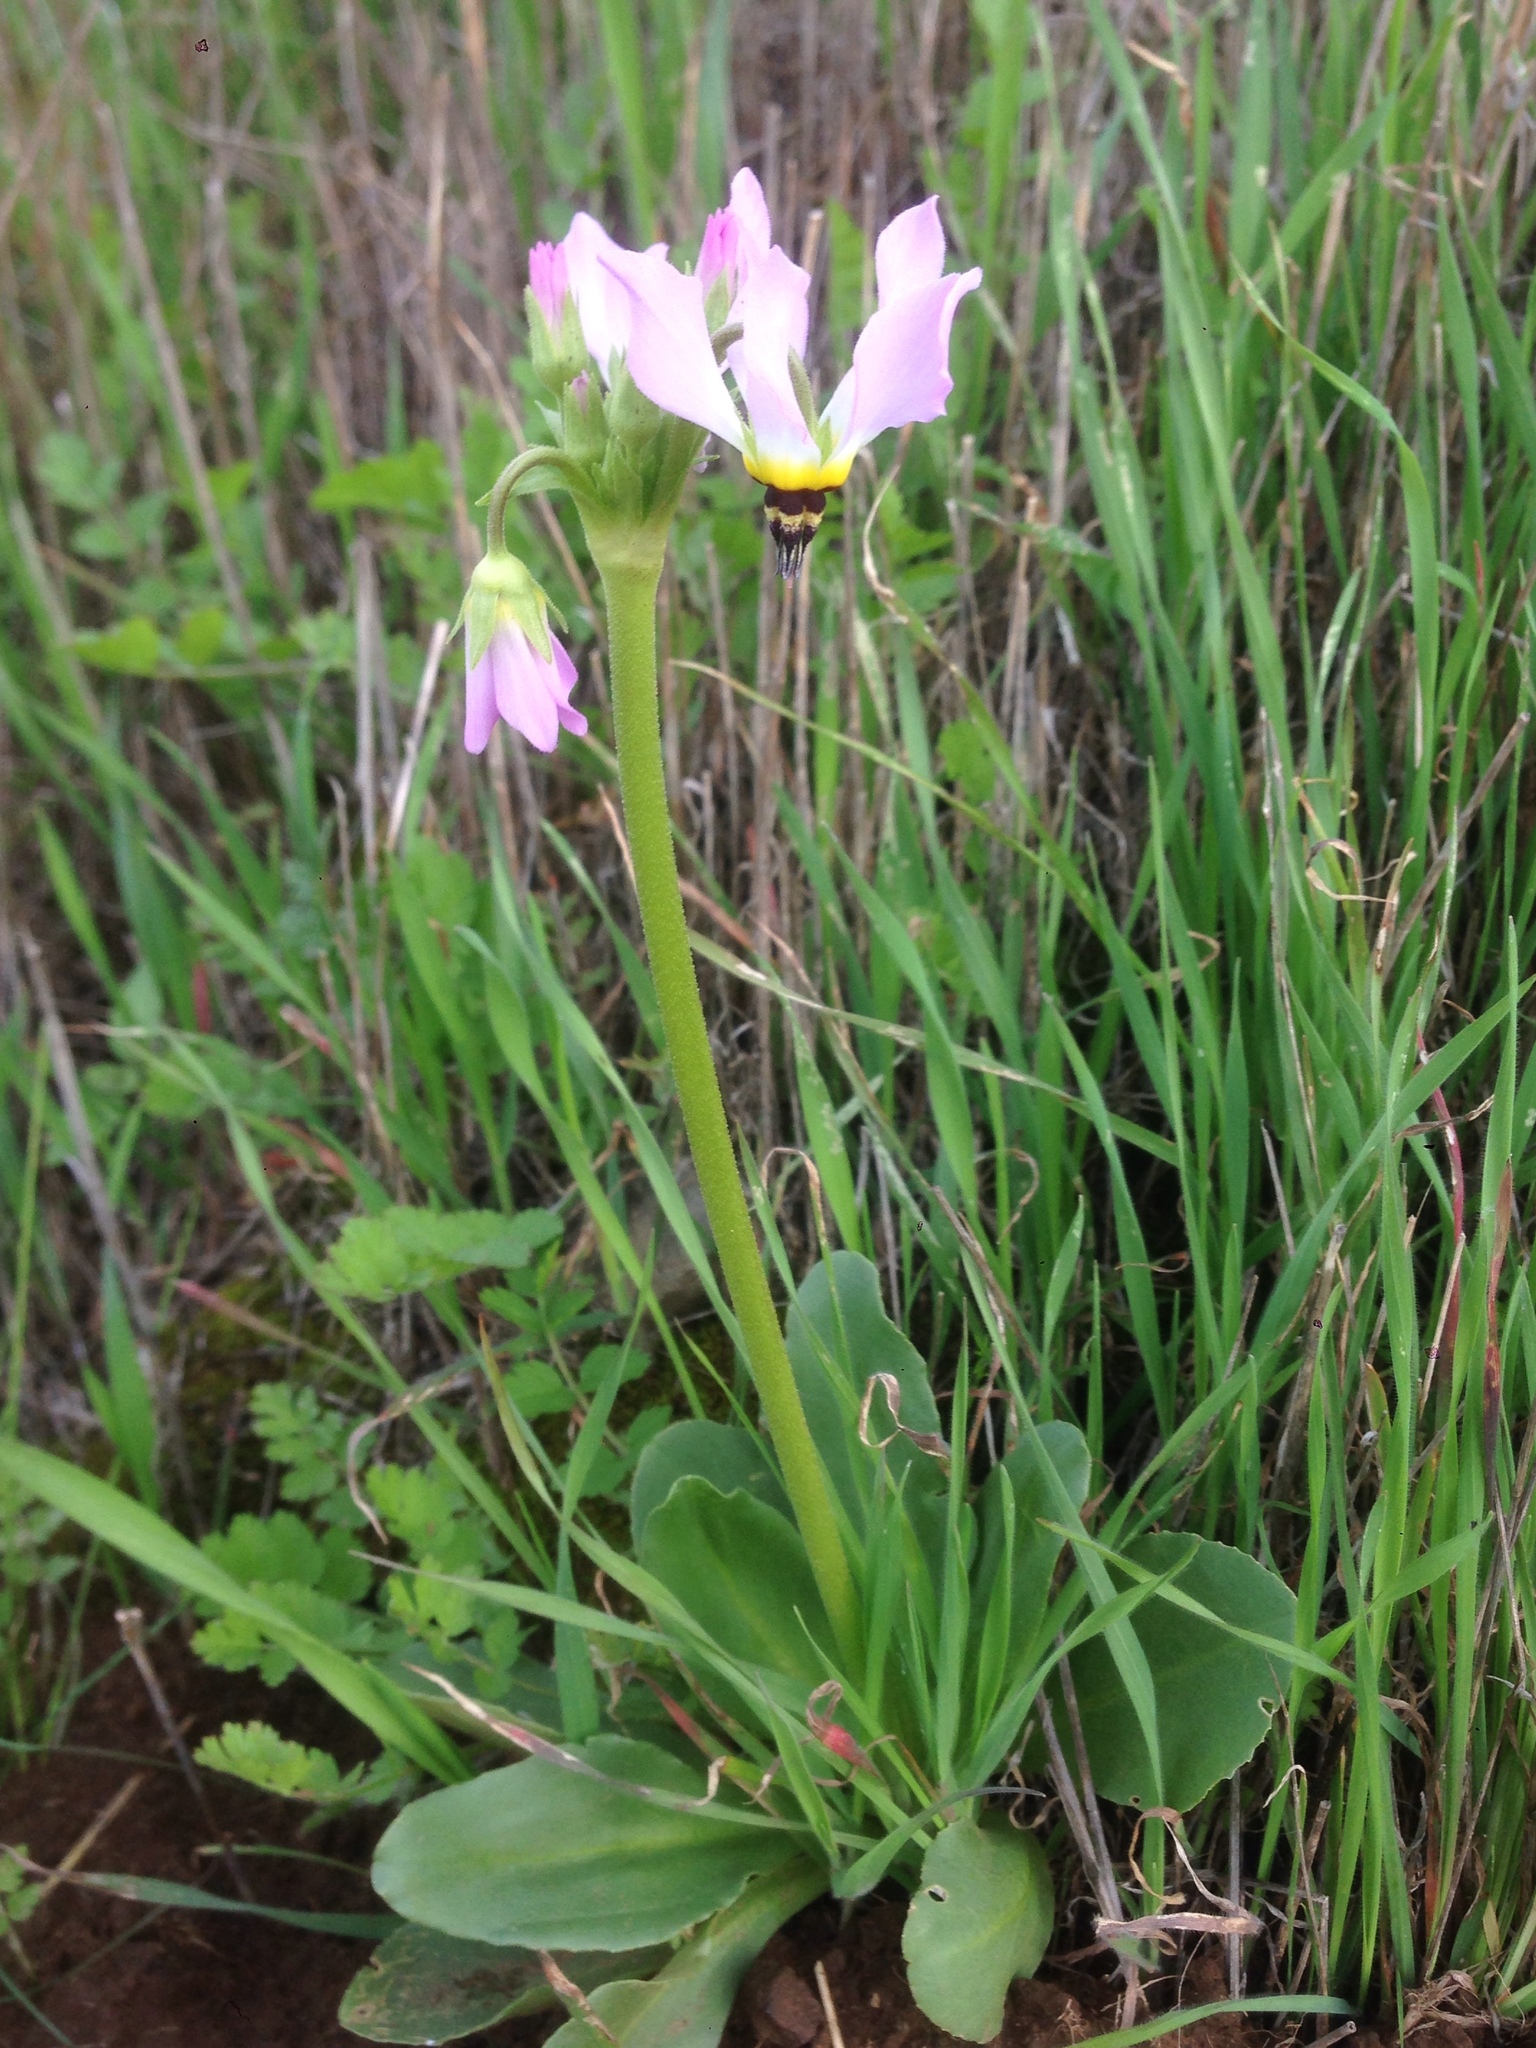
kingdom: Plantae
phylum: Tracheophyta
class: Magnoliopsida
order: Ericales
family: Primulaceae
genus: Dodecatheon
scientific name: Dodecatheon clevelandii
